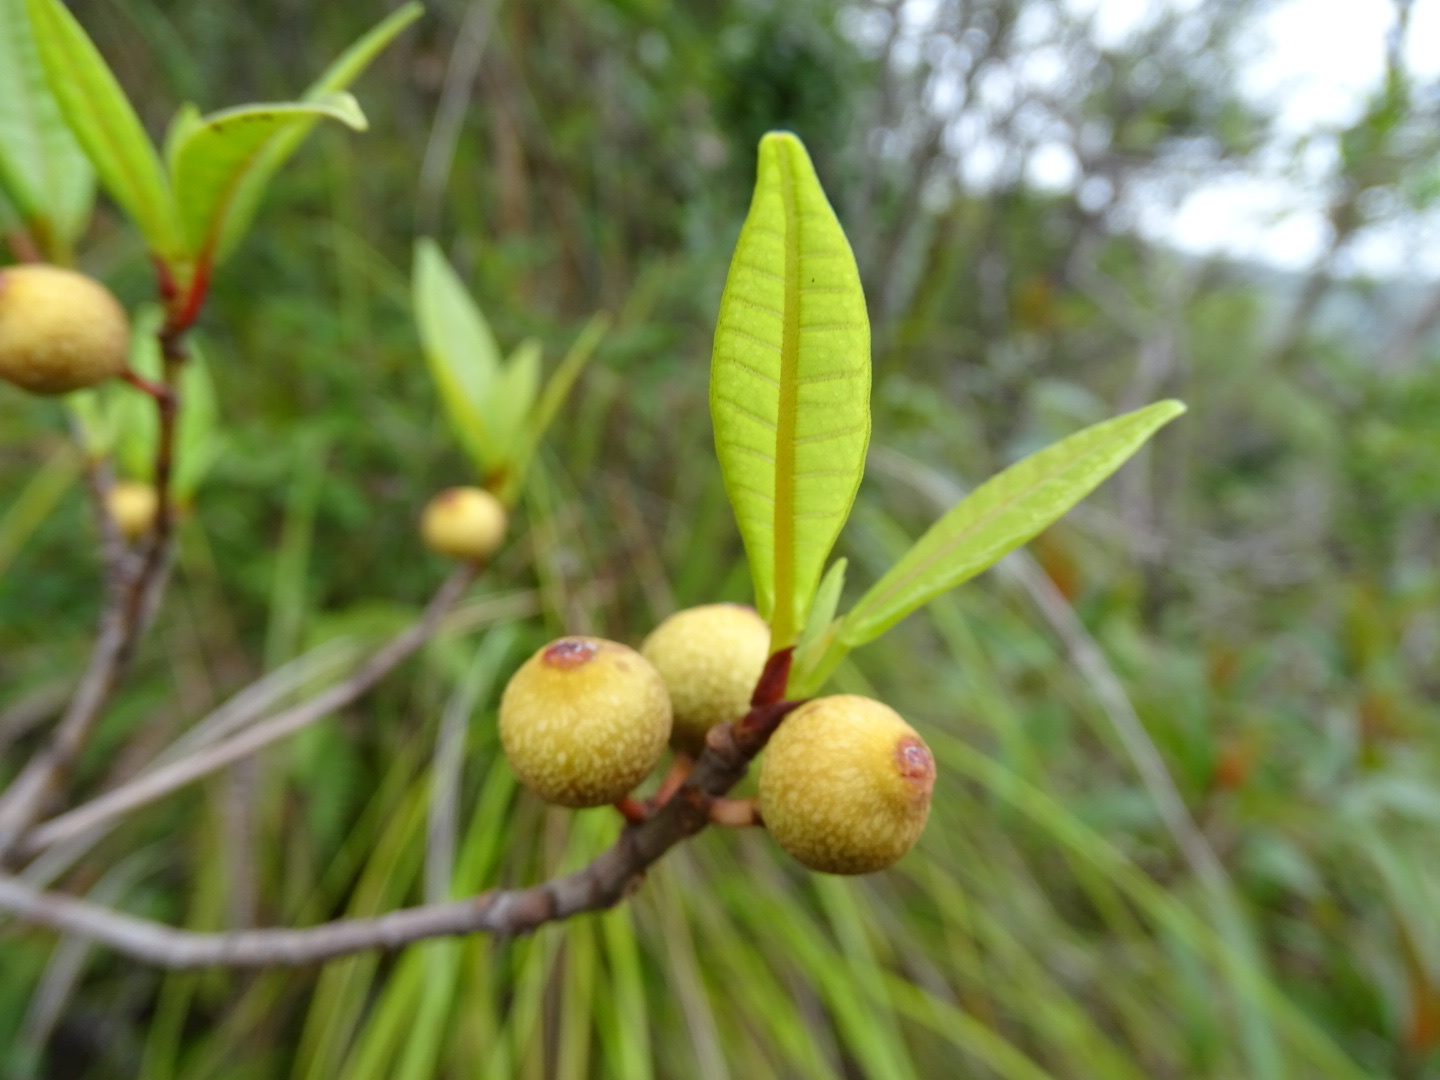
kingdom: Plantae
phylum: Tracheophyta
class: Magnoliopsida
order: Rosales
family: Moraceae
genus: Ficus
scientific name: Ficus variolosa
